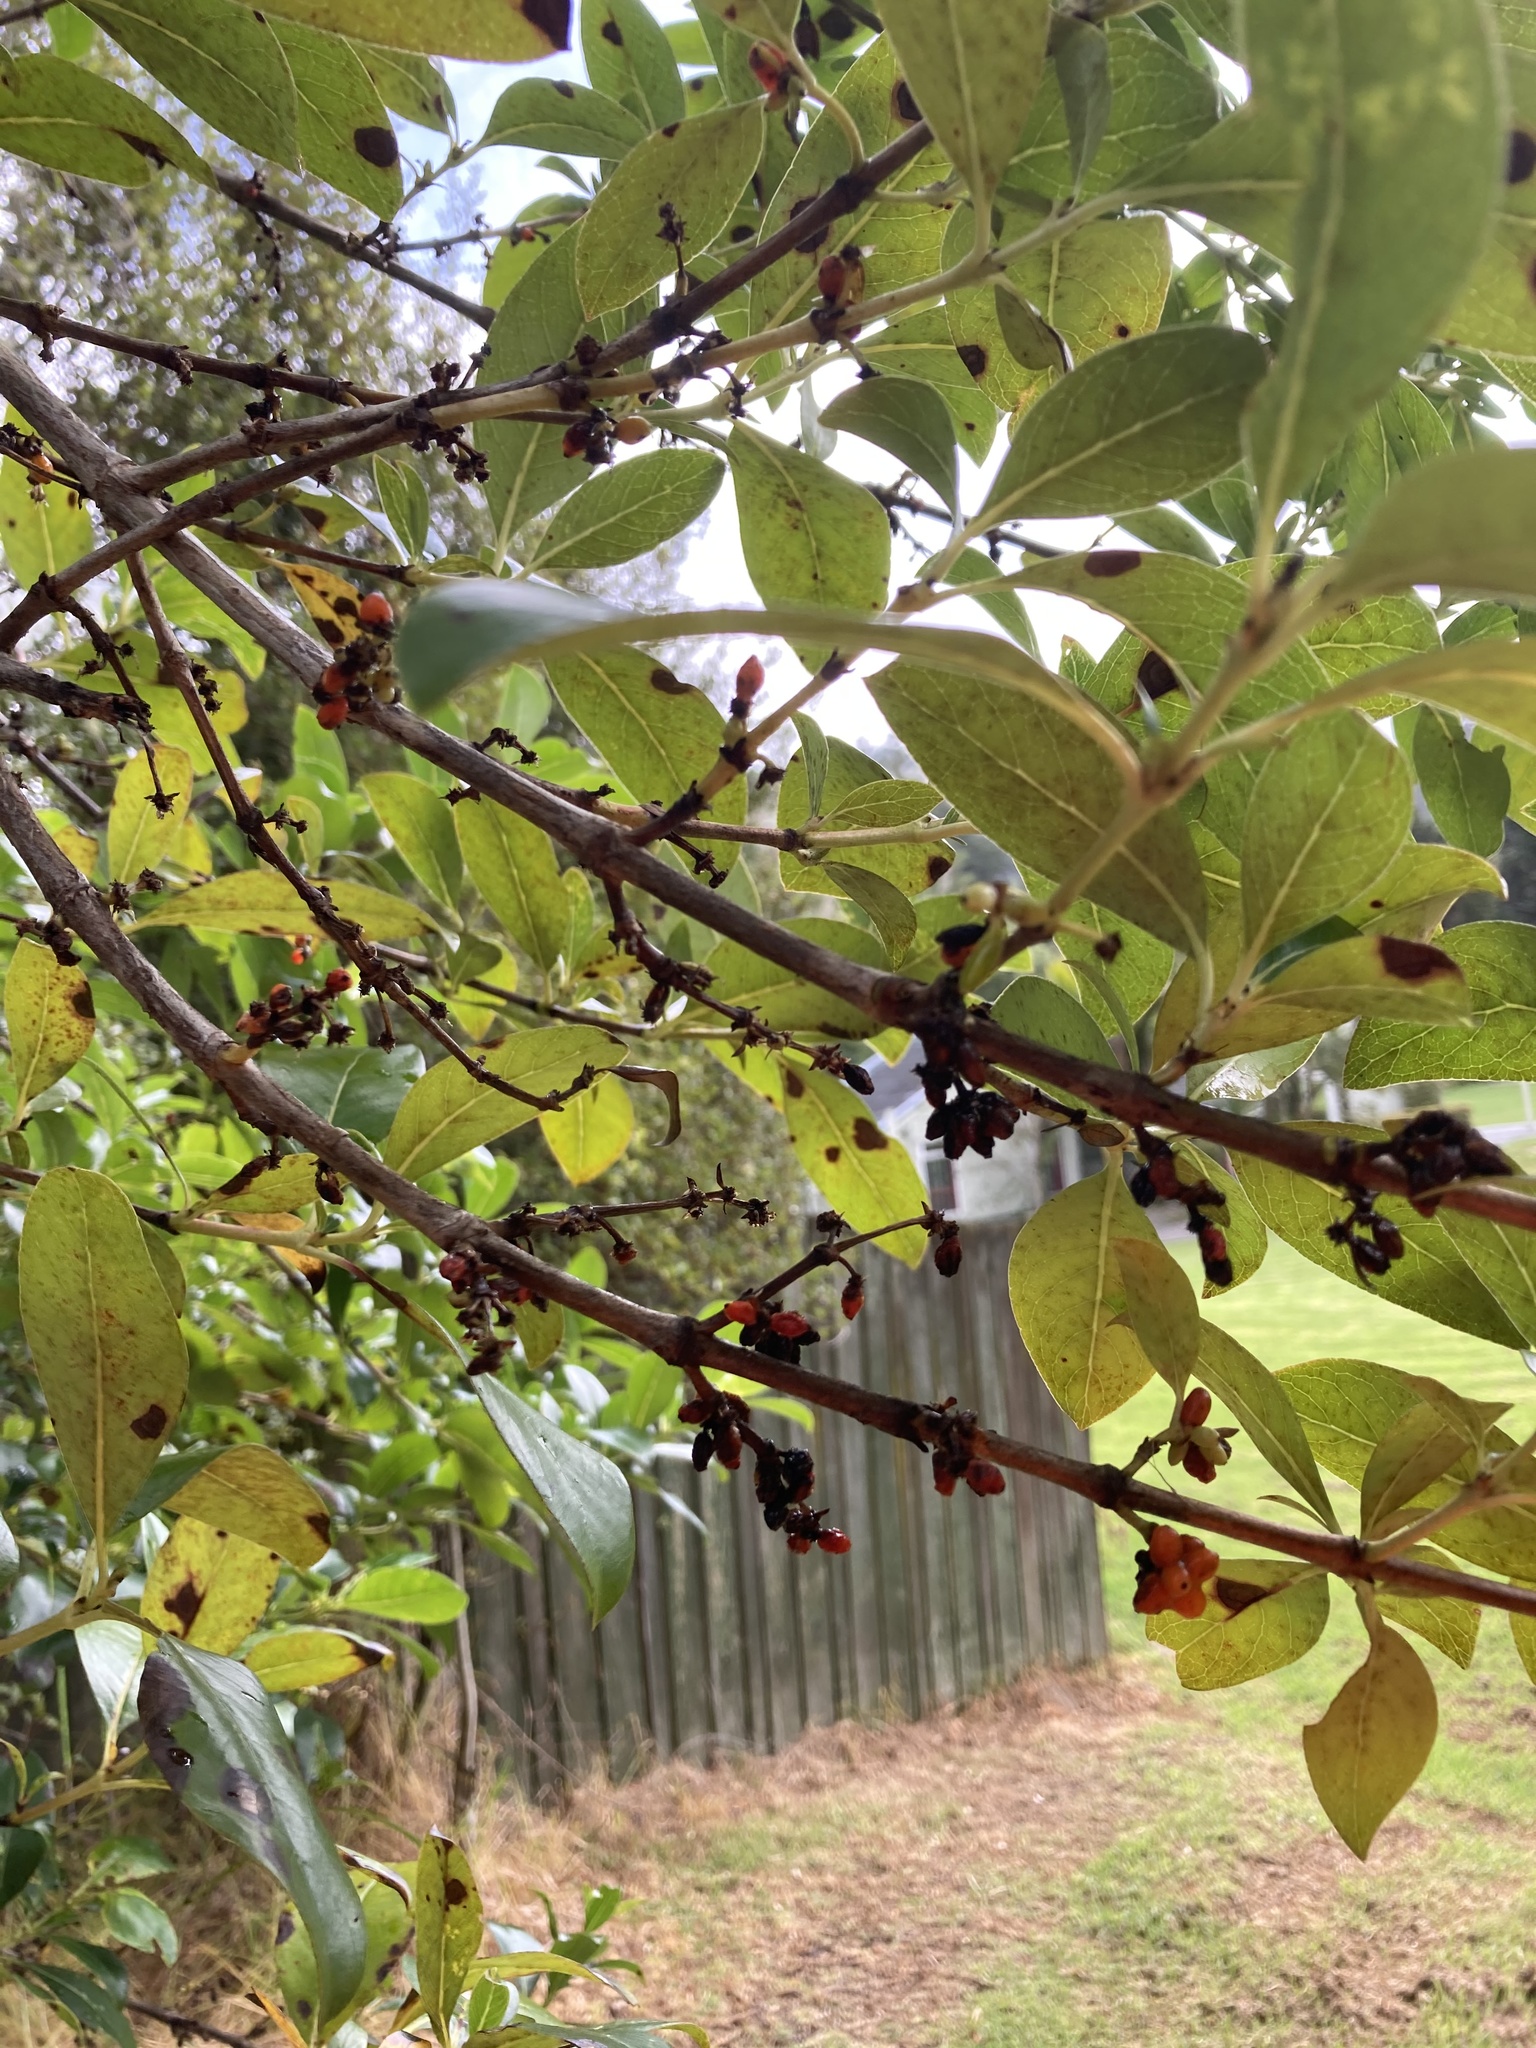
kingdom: Plantae
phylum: Tracheophyta
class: Magnoliopsida
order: Gentianales
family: Rubiaceae
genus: Coprosma
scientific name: Coprosma robusta
